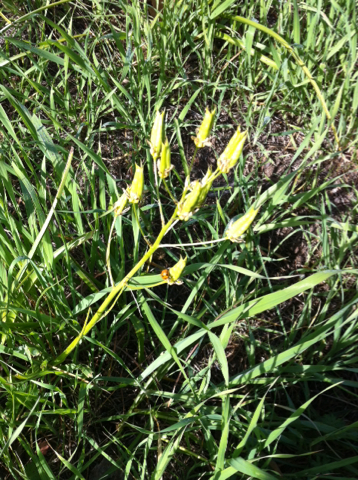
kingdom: Plantae
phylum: Tracheophyta
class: Liliopsida
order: Liliales
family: Melanthiaceae
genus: Toxicoscordion
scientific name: Toxicoscordion fremontii
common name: Fremont's death camas
